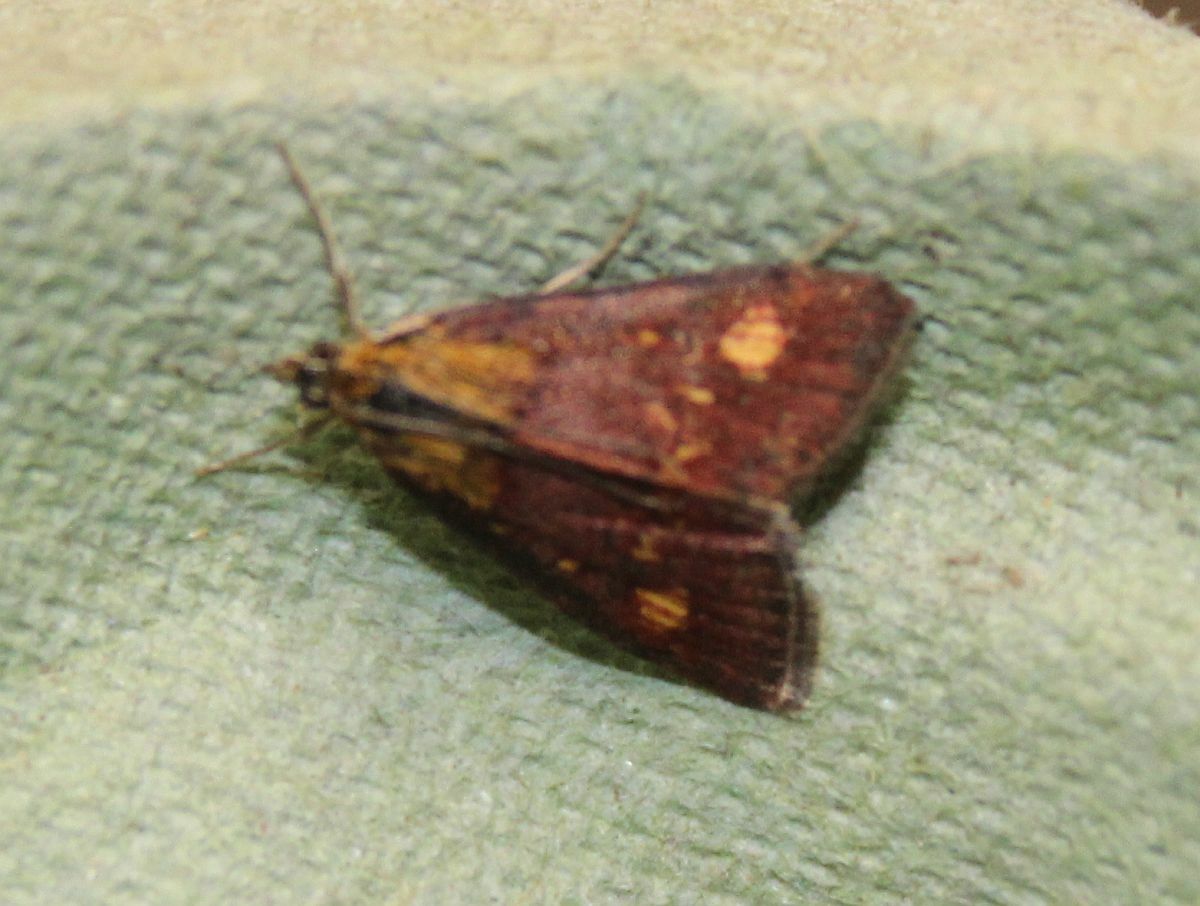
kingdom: Animalia
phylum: Arthropoda
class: Insecta
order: Lepidoptera
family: Crambidae
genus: Pyrausta
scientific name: Pyrausta aurata
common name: Small purple & gold
